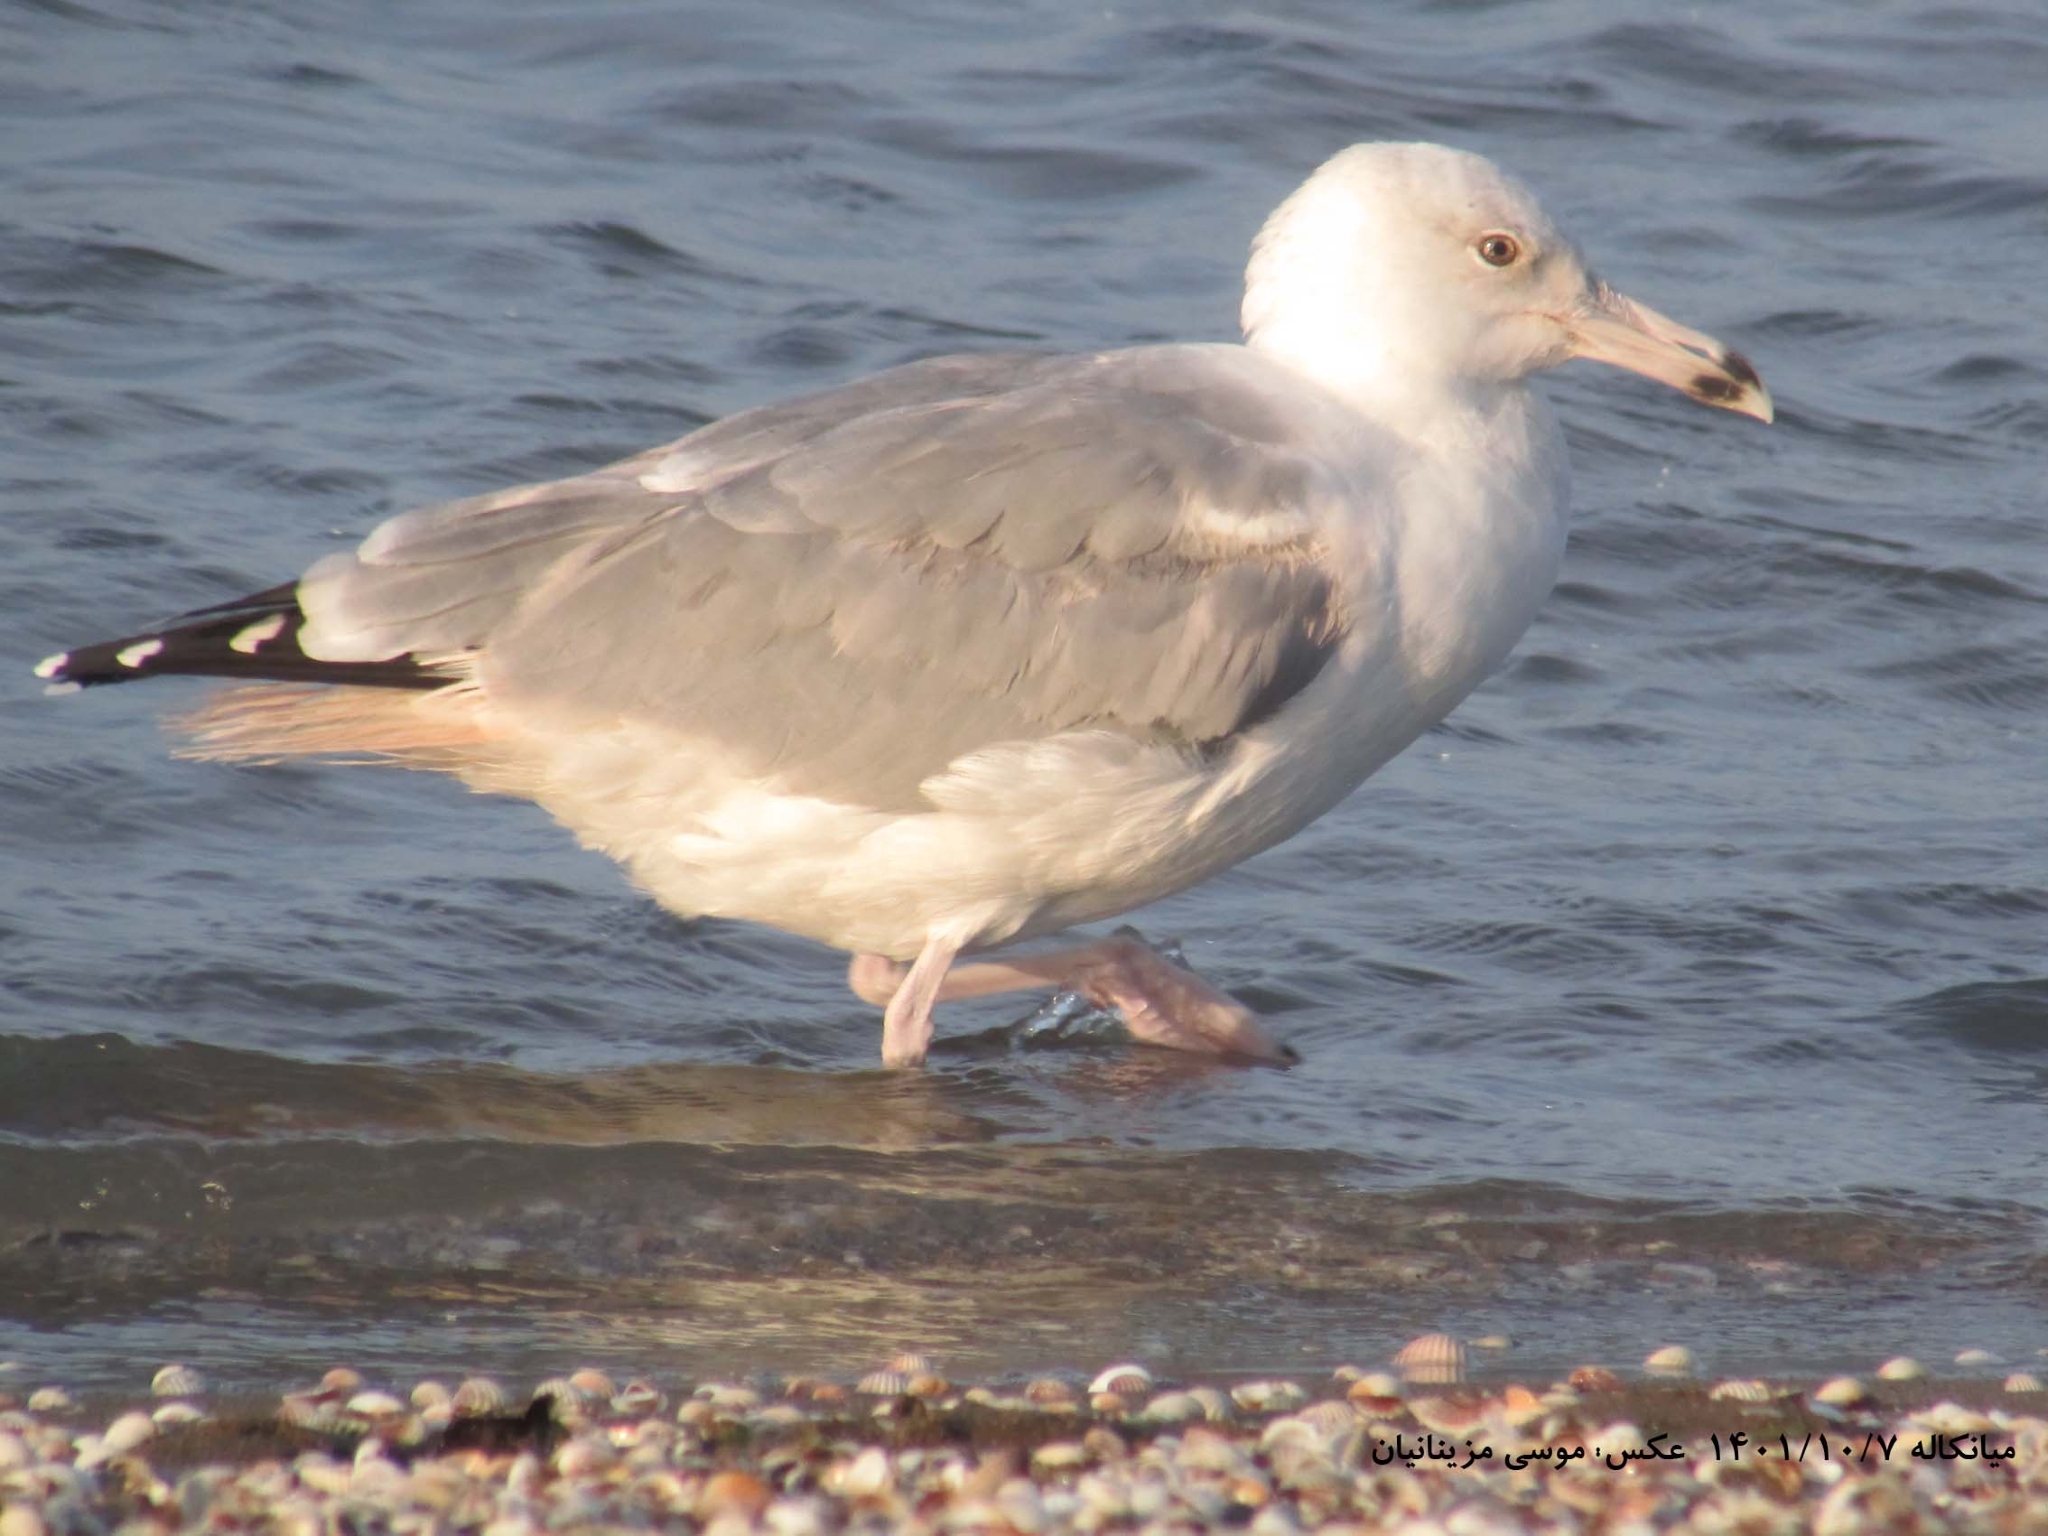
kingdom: Animalia
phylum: Chordata
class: Aves
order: Charadriiformes
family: Laridae
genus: Larus
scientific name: Larus cachinnans
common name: Caspian gull
